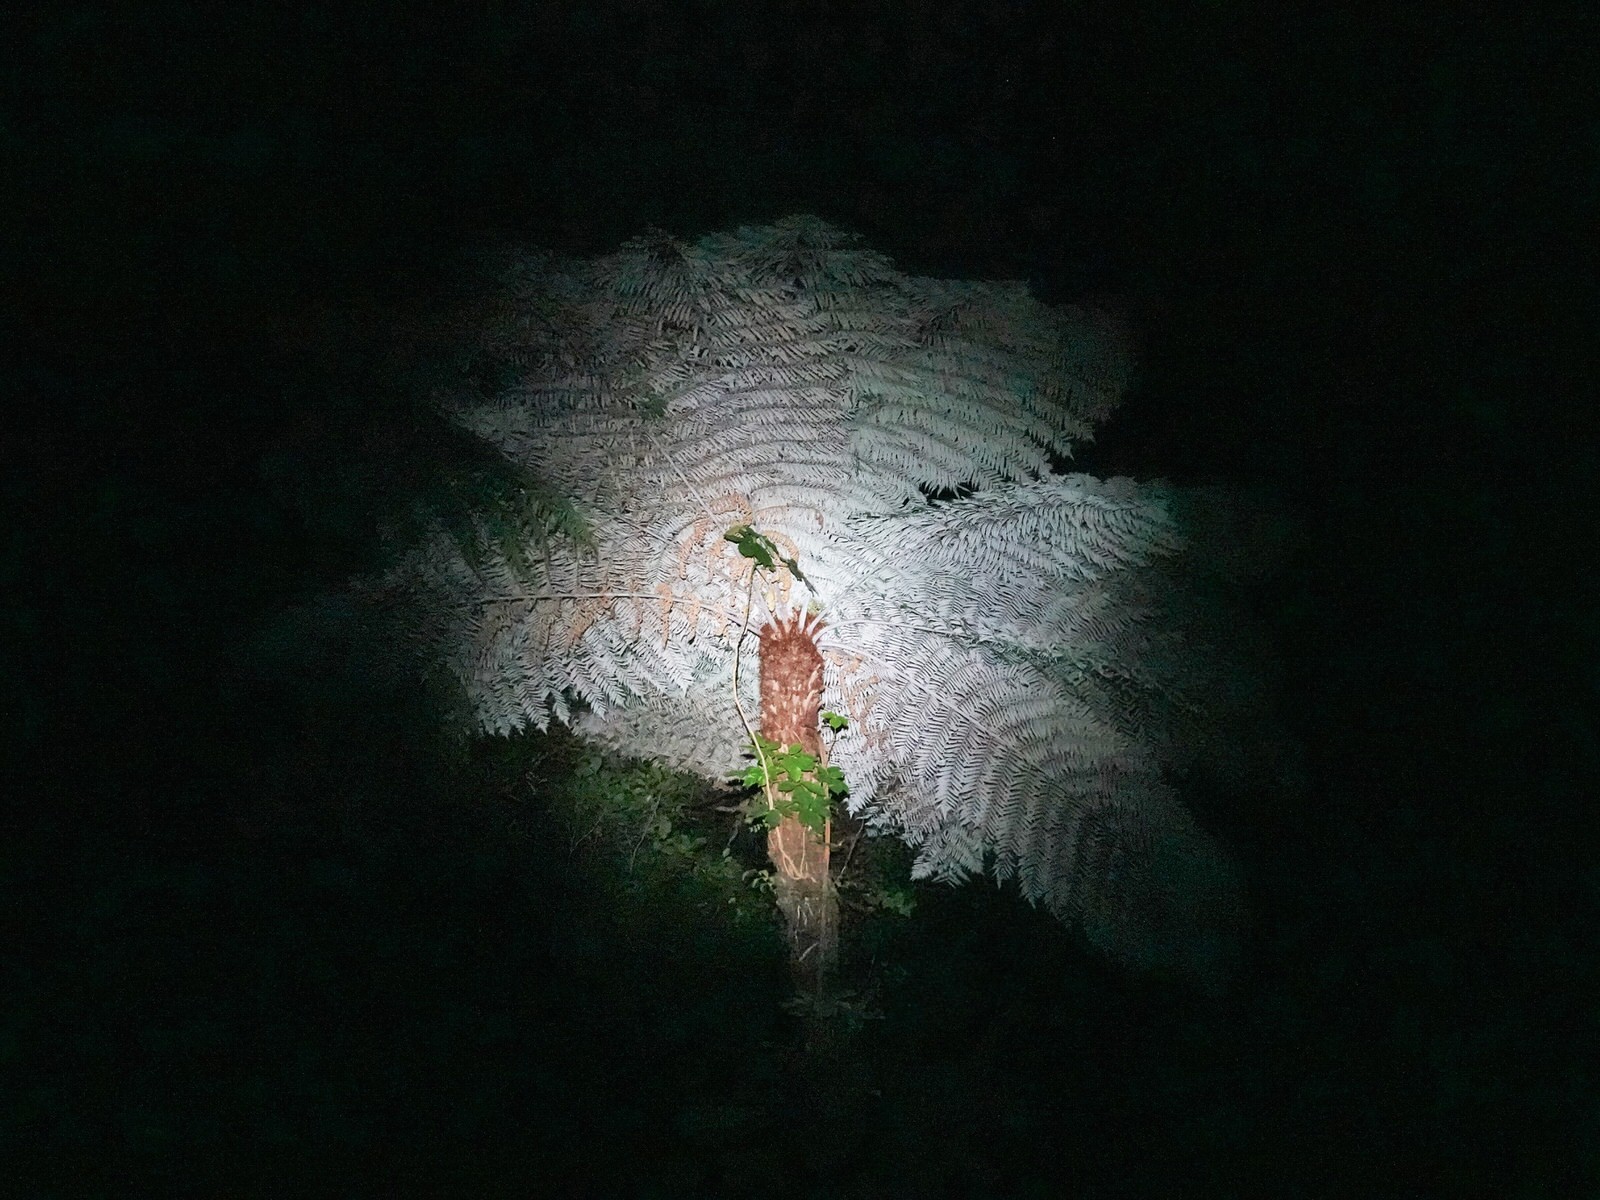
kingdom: Plantae
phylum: Tracheophyta
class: Polypodiopsida
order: Cyatheales
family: Cyatheaceae
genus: Alsophila
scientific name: Alsophila dealbata
